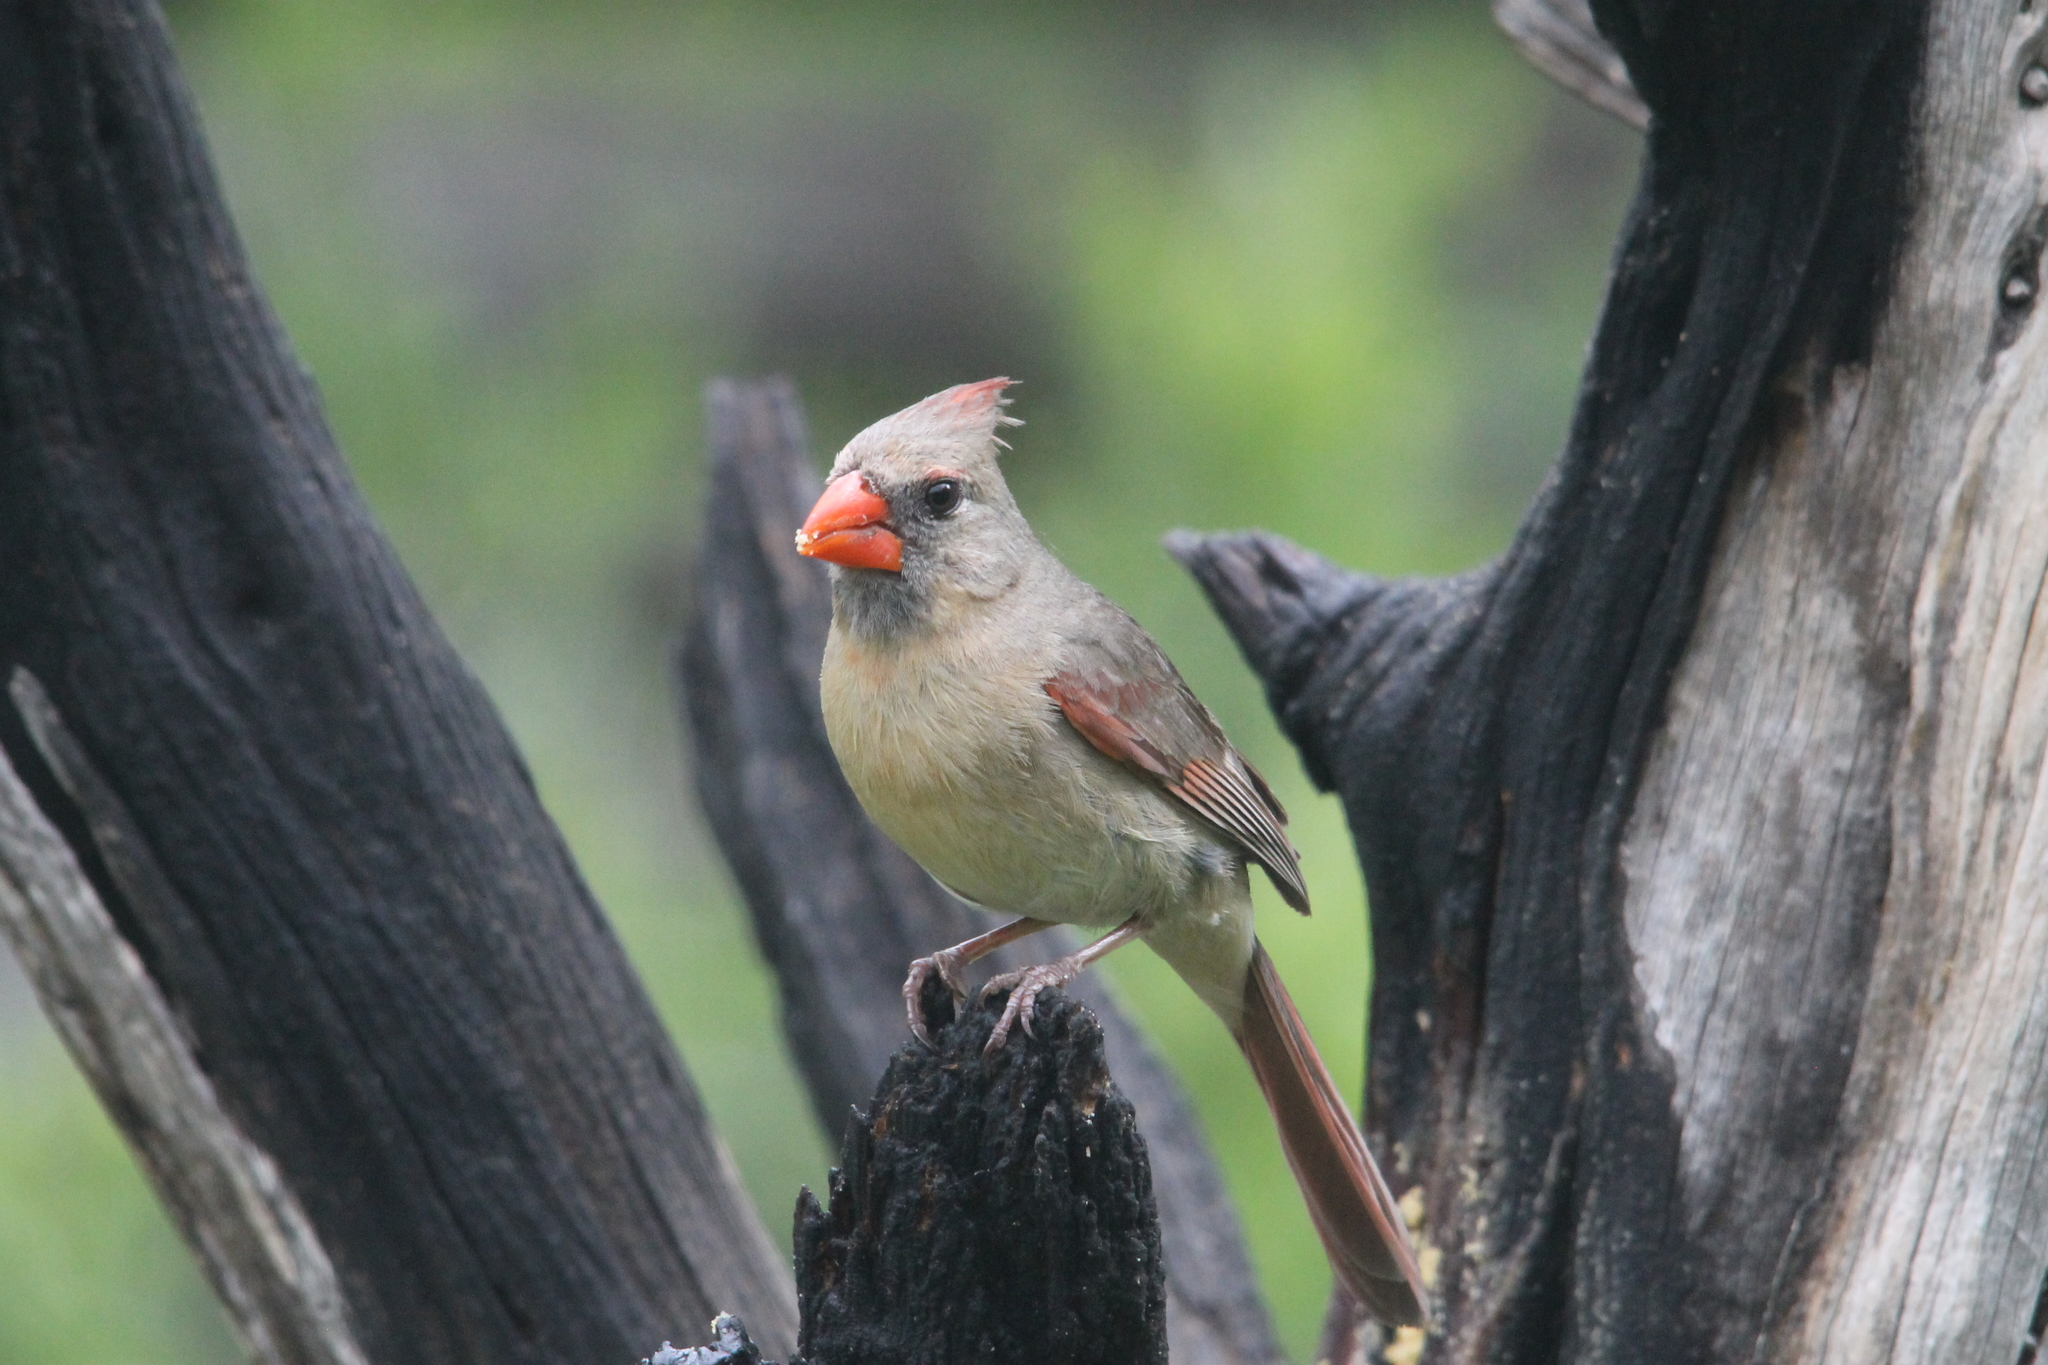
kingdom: Animalia
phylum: Chordata
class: Aves
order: Passeriformes
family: Cardinalidae
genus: Cardinalis
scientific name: Cardinalis cardinalis
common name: Northern cardinal
